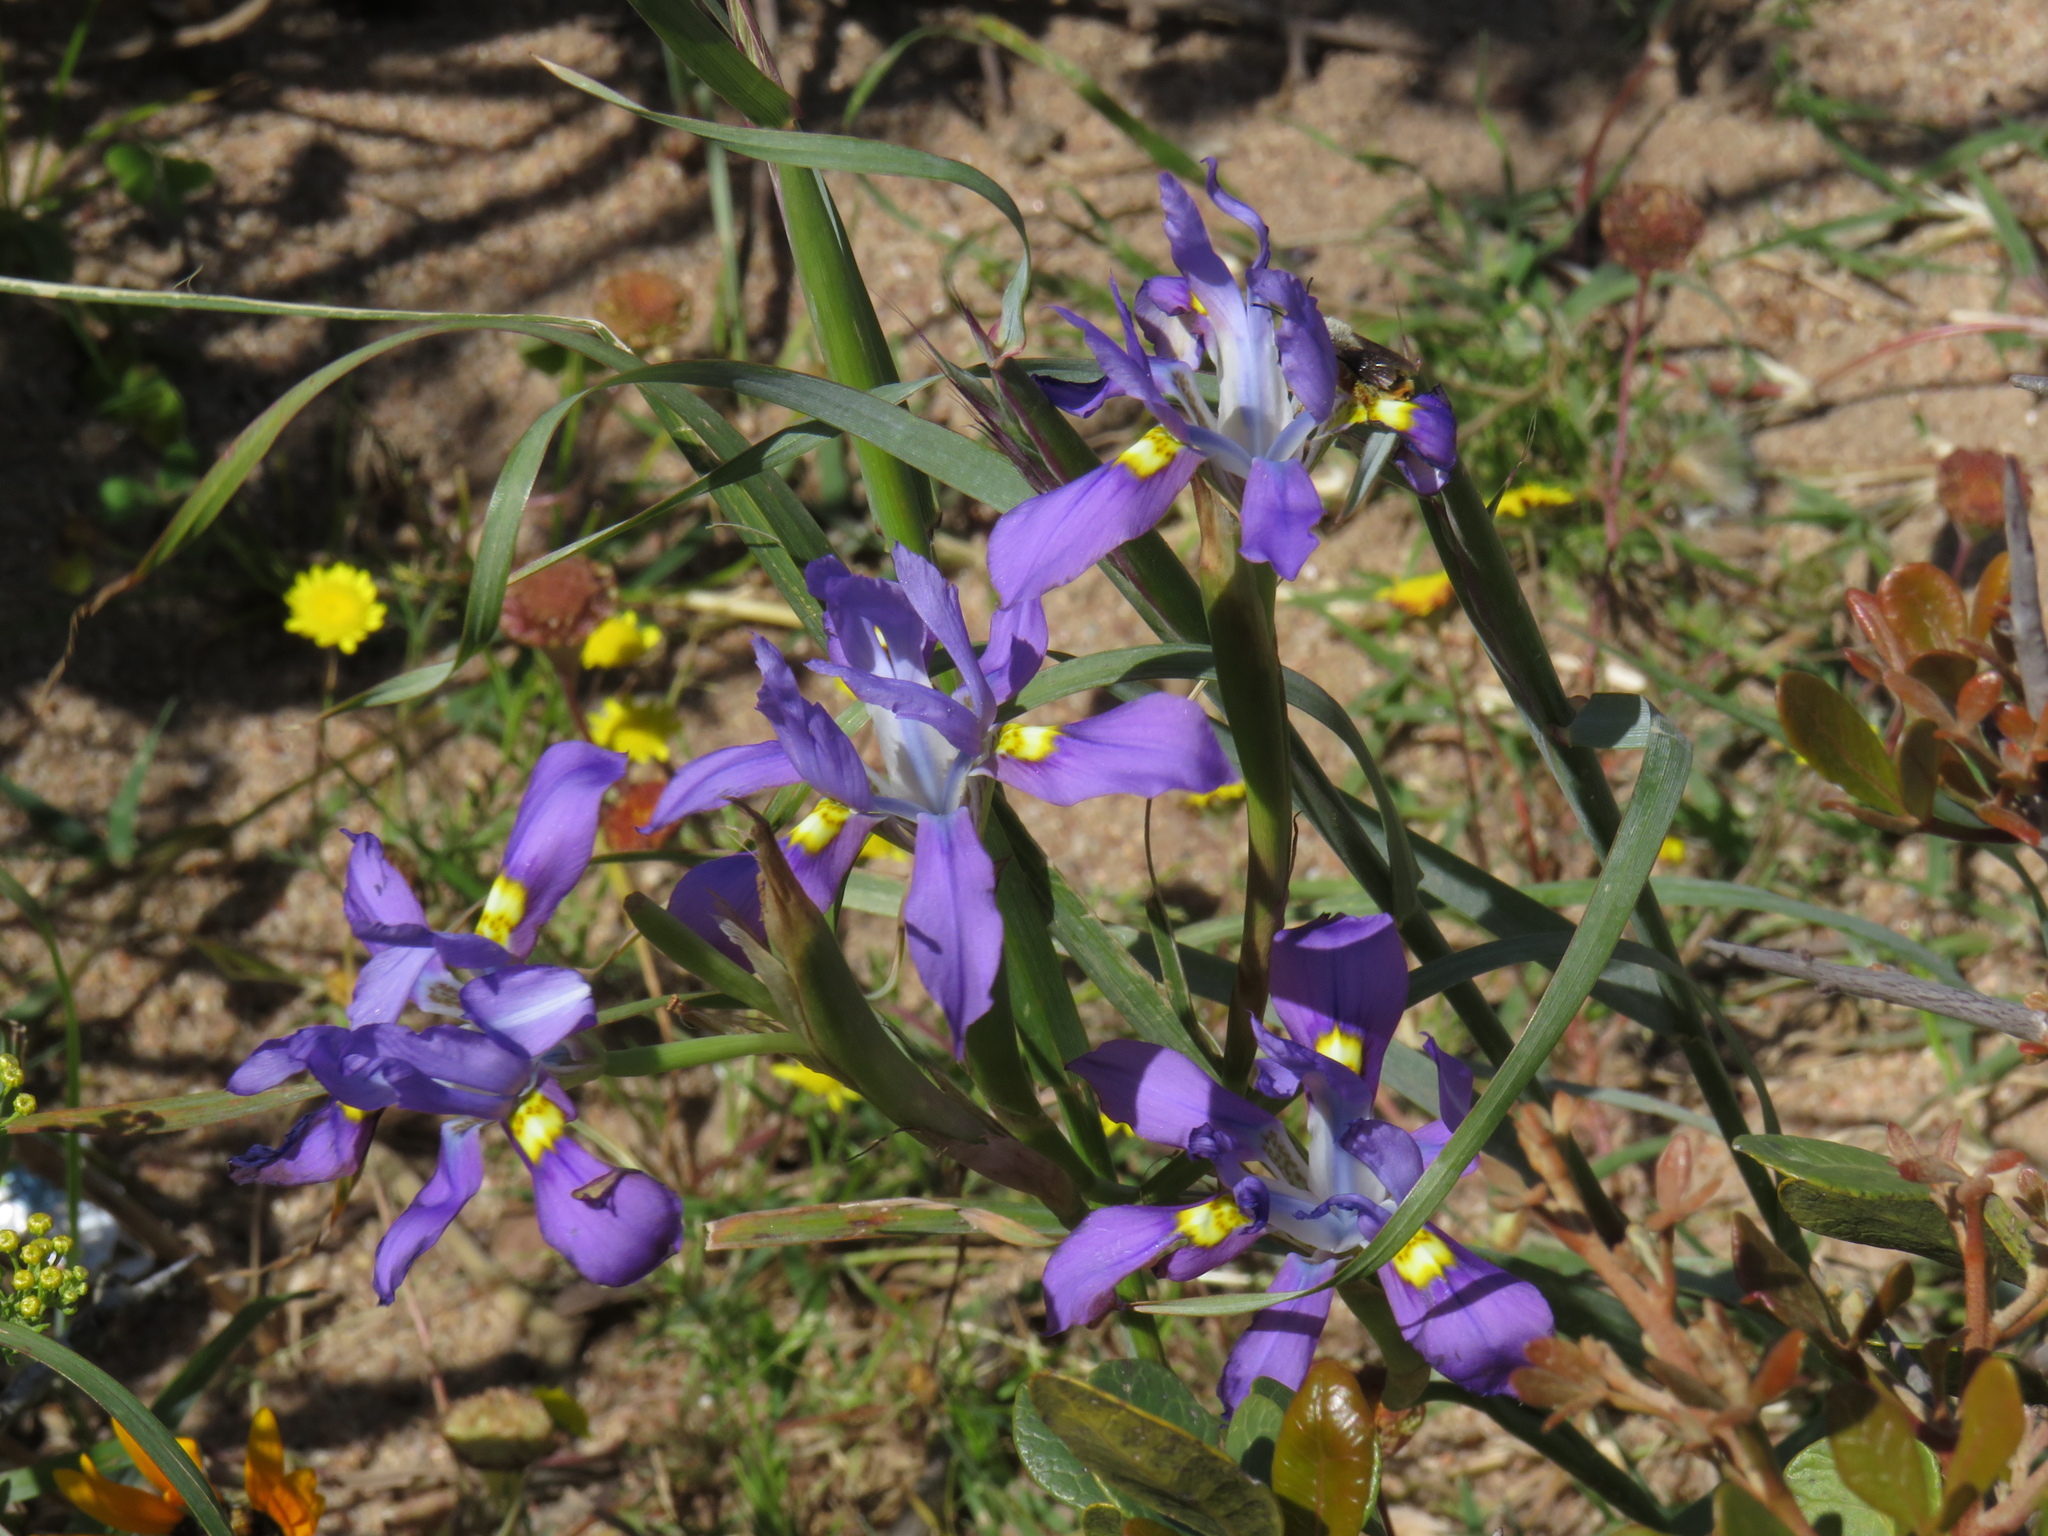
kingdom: Plantae
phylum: Tracheophyta
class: Liliopsida
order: Asparagales
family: Iridaceae
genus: Moraea
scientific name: Moraea fugax
